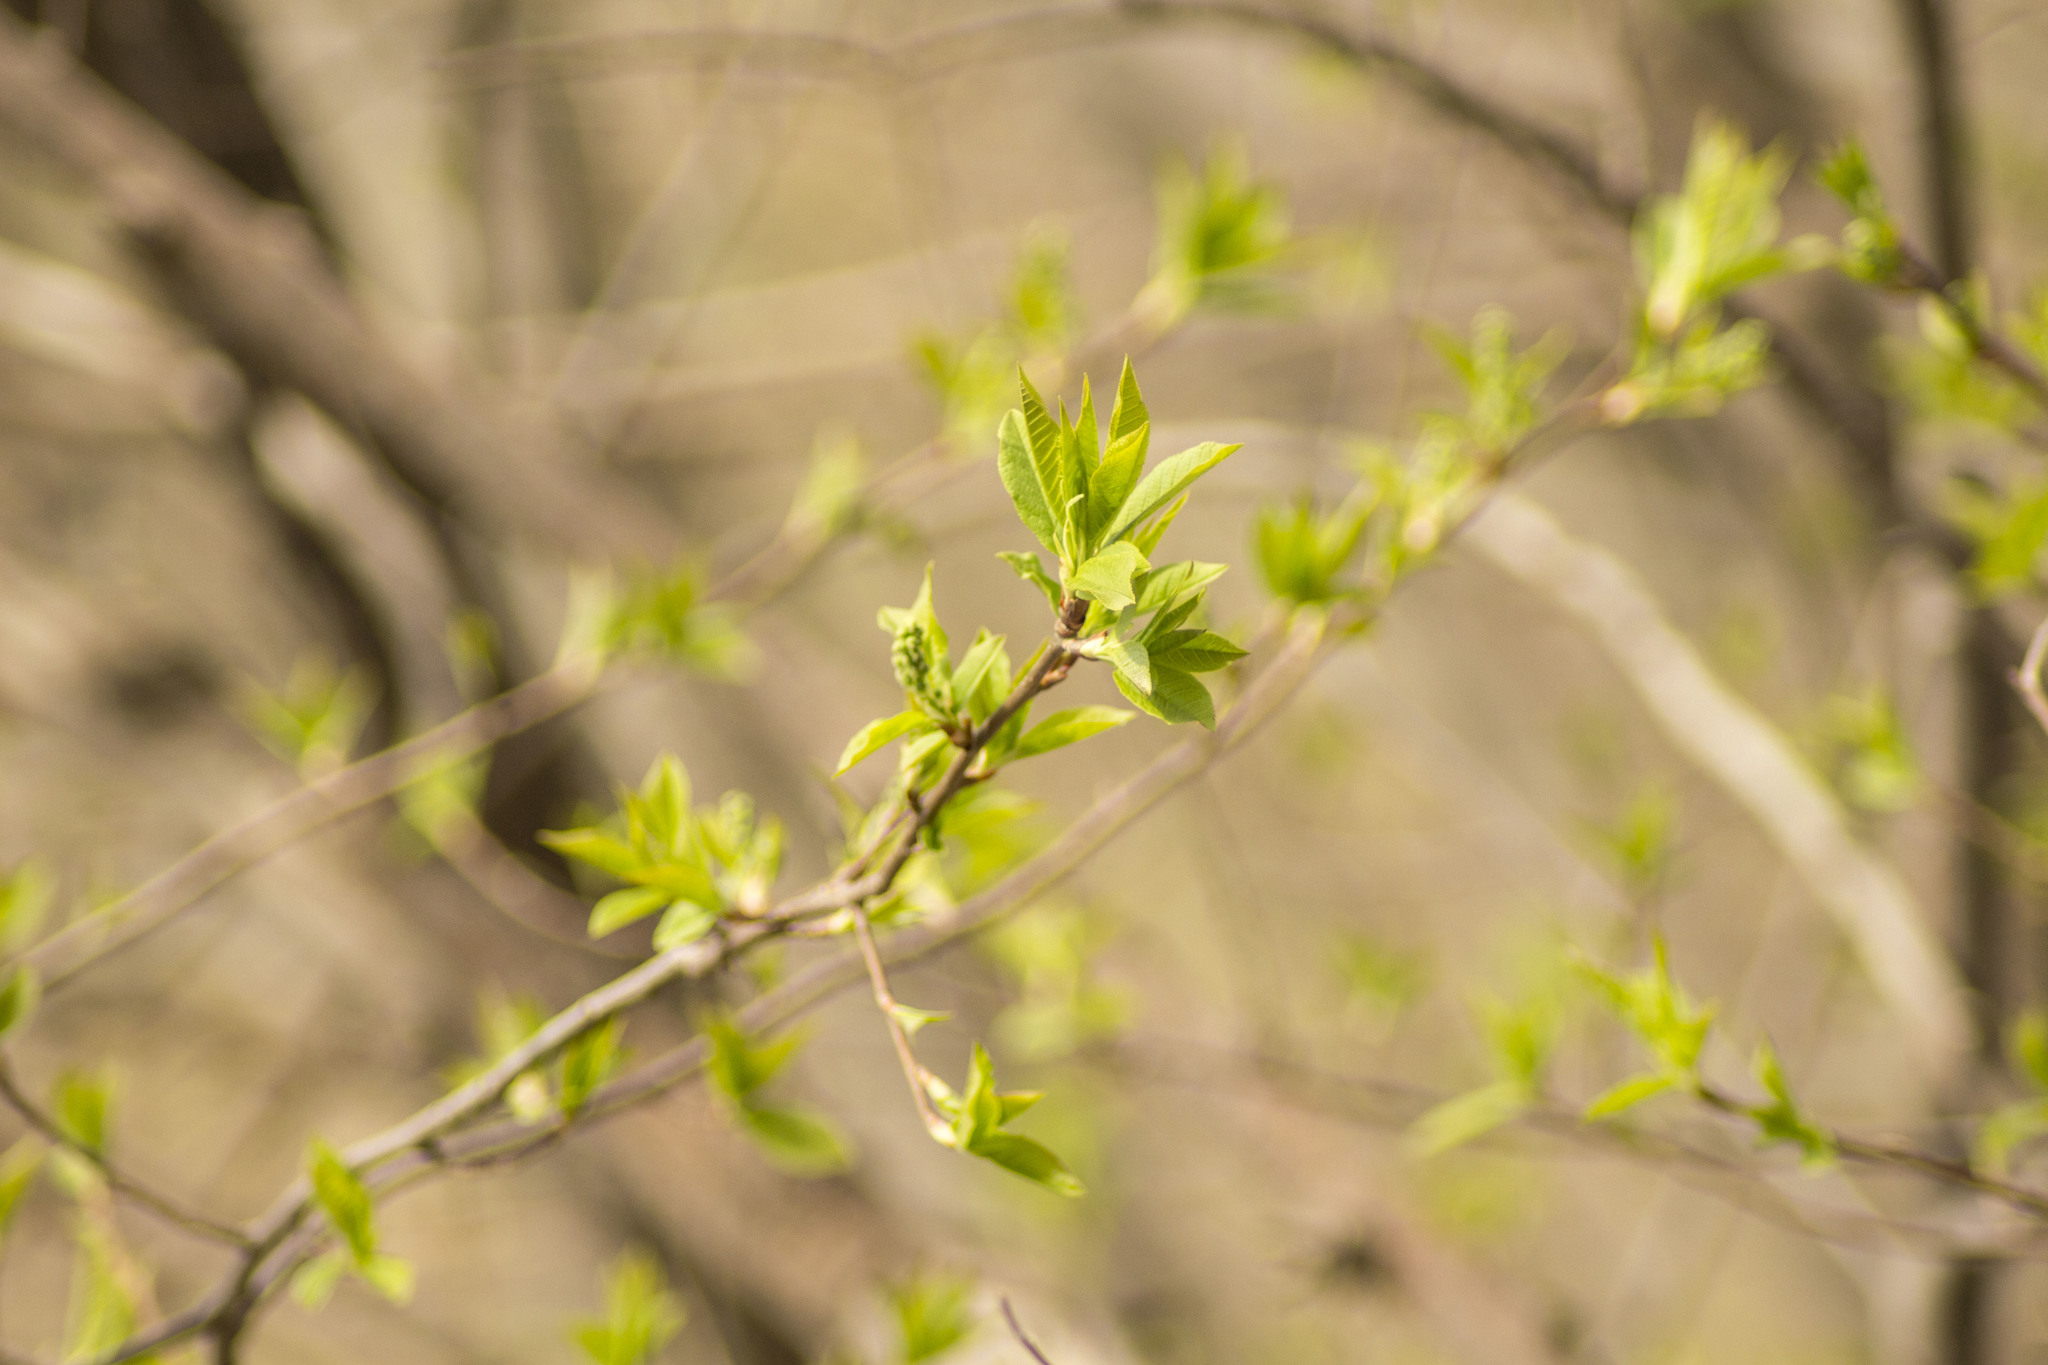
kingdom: Plantae
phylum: Tracheophyta
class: Magnoliopsida
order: Rosales
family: Rosaceae
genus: Prunus
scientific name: Prunus padus
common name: Bird cherry
